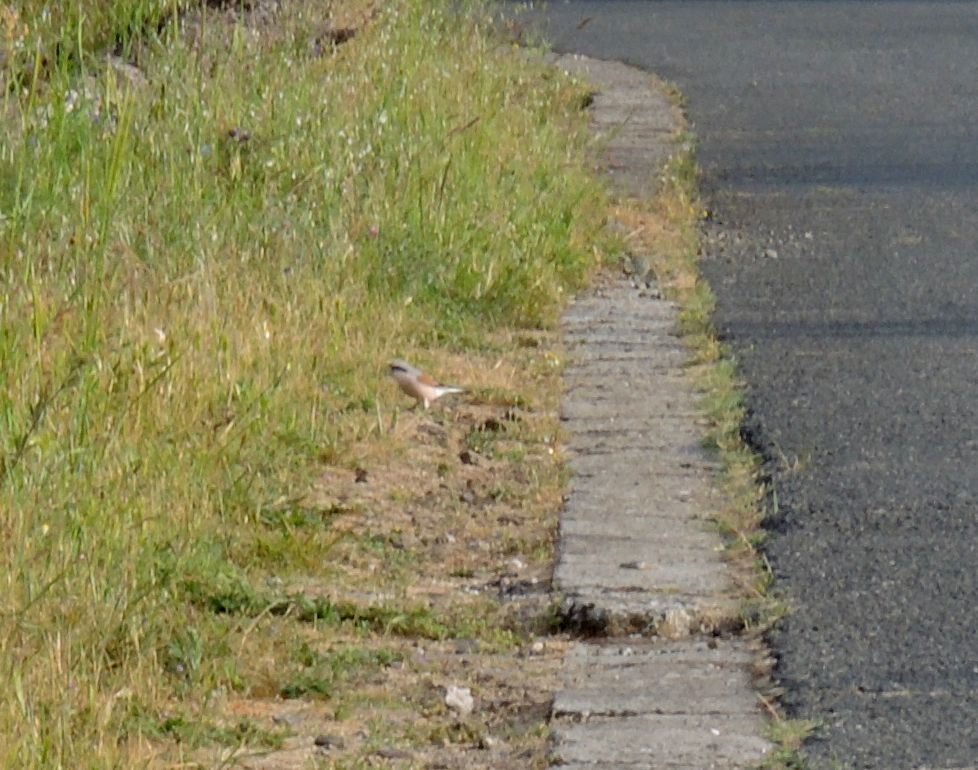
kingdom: Animalia
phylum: Chordata
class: Aves
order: Passeriformes
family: Laniidae
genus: Lanius
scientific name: Lanius collurio
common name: Red-backed shrike
